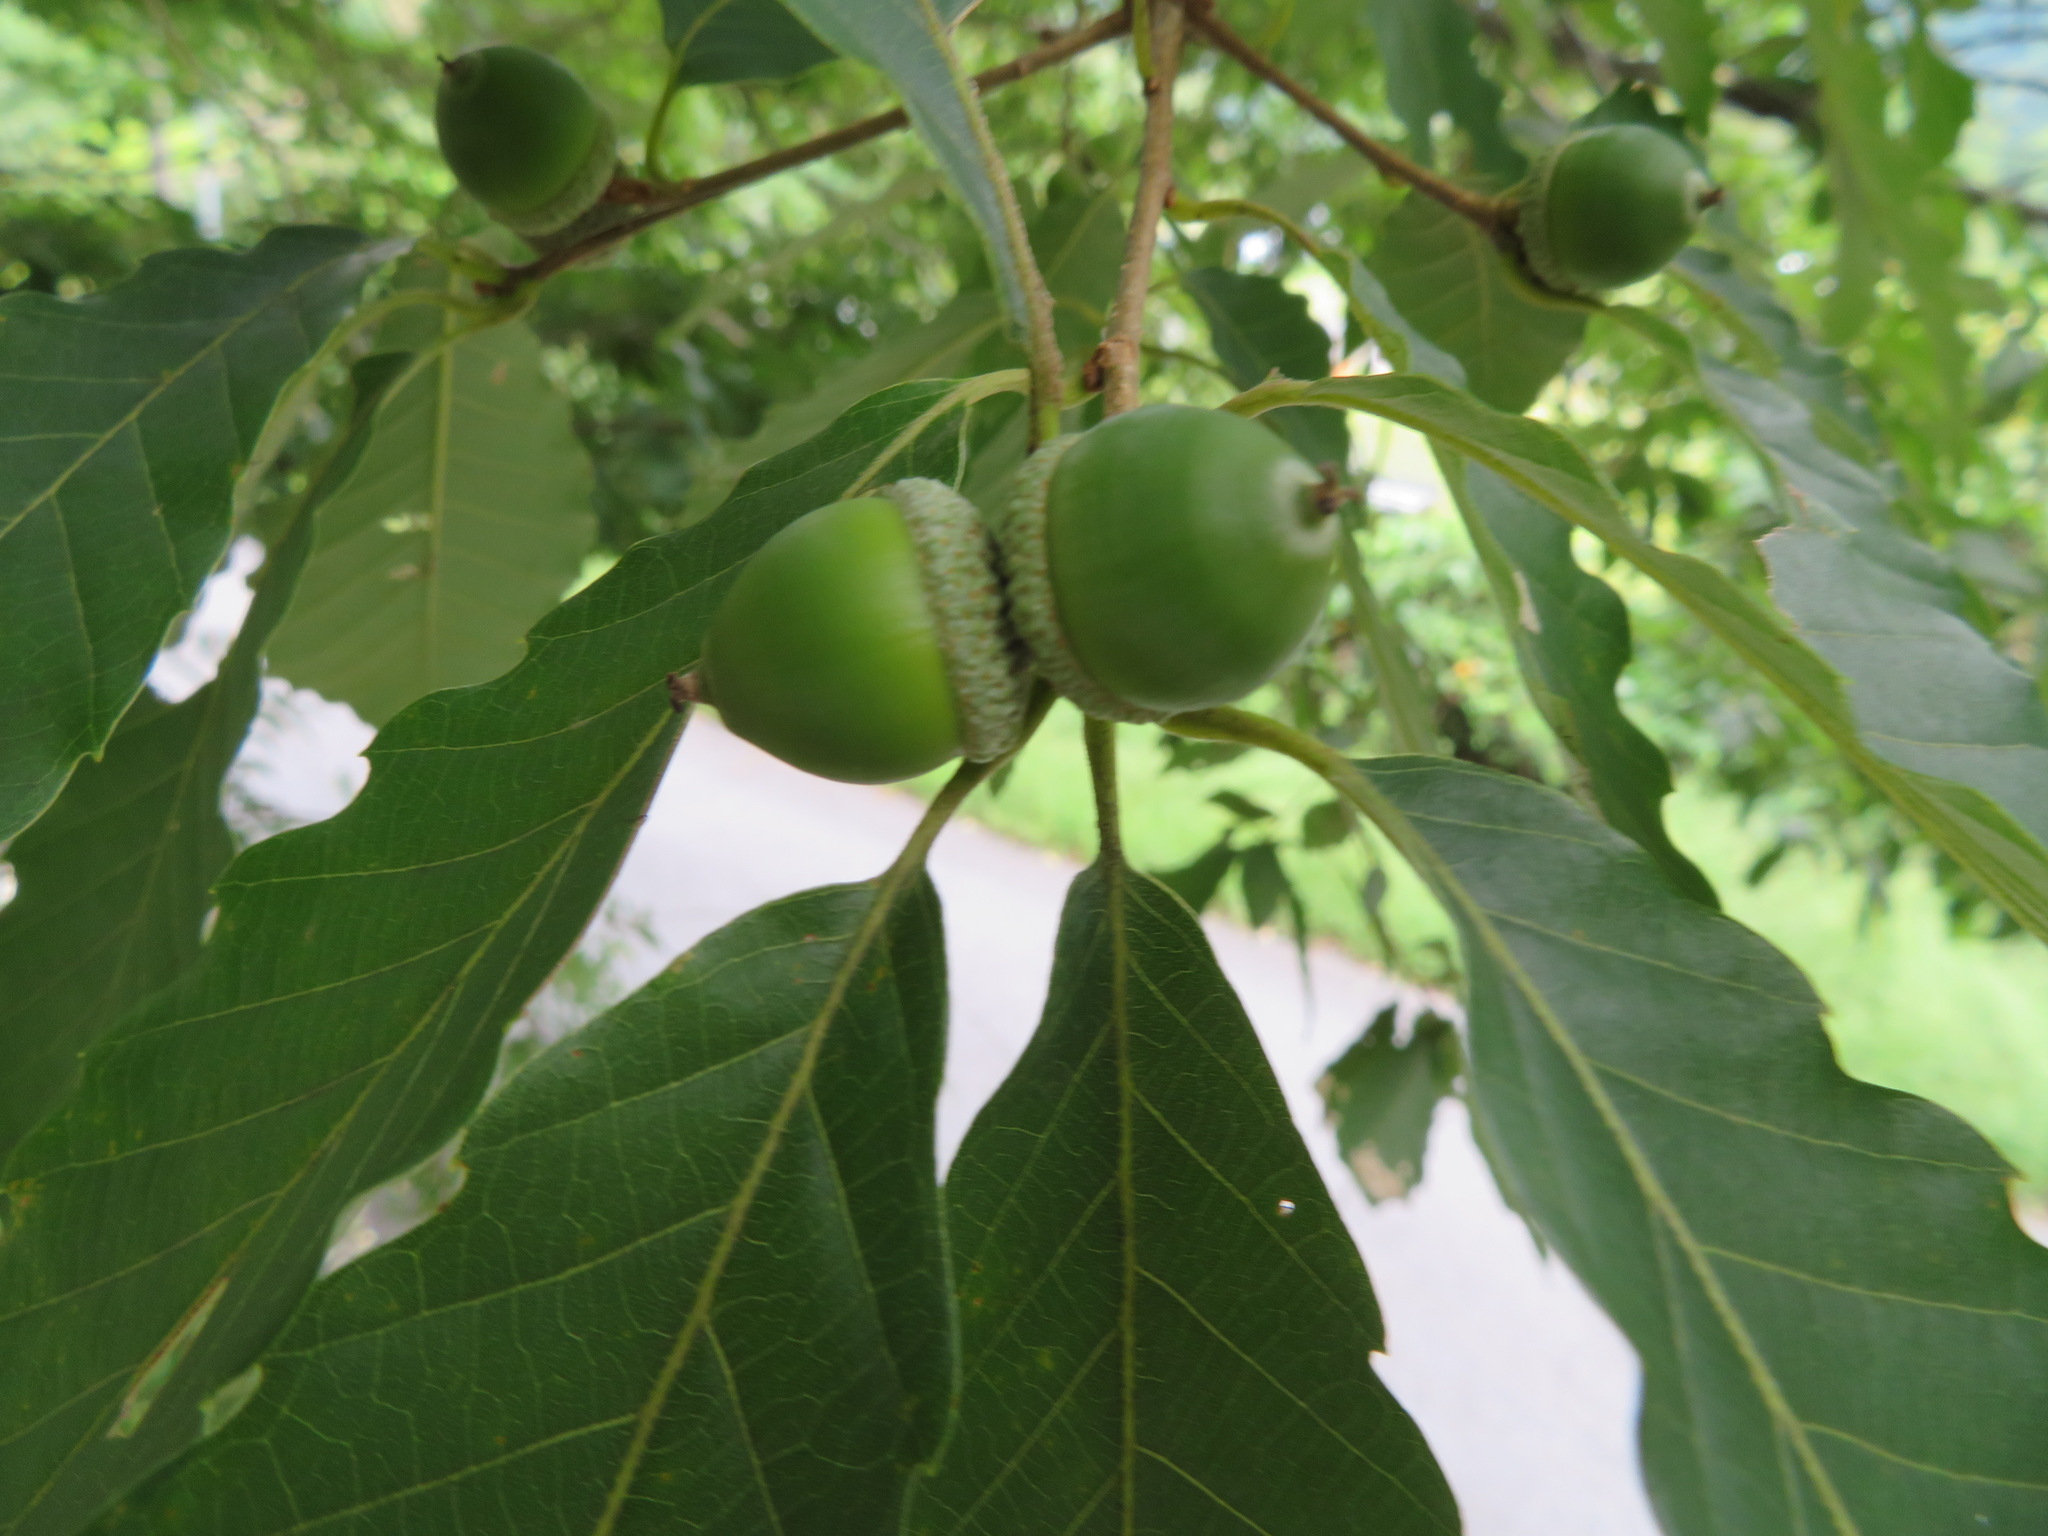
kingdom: Plantae
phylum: Tracheophyta
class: Magnoliopsida
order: Fagales
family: Fagaceae
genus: Quercus
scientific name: Quercus serrata
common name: Bao li
